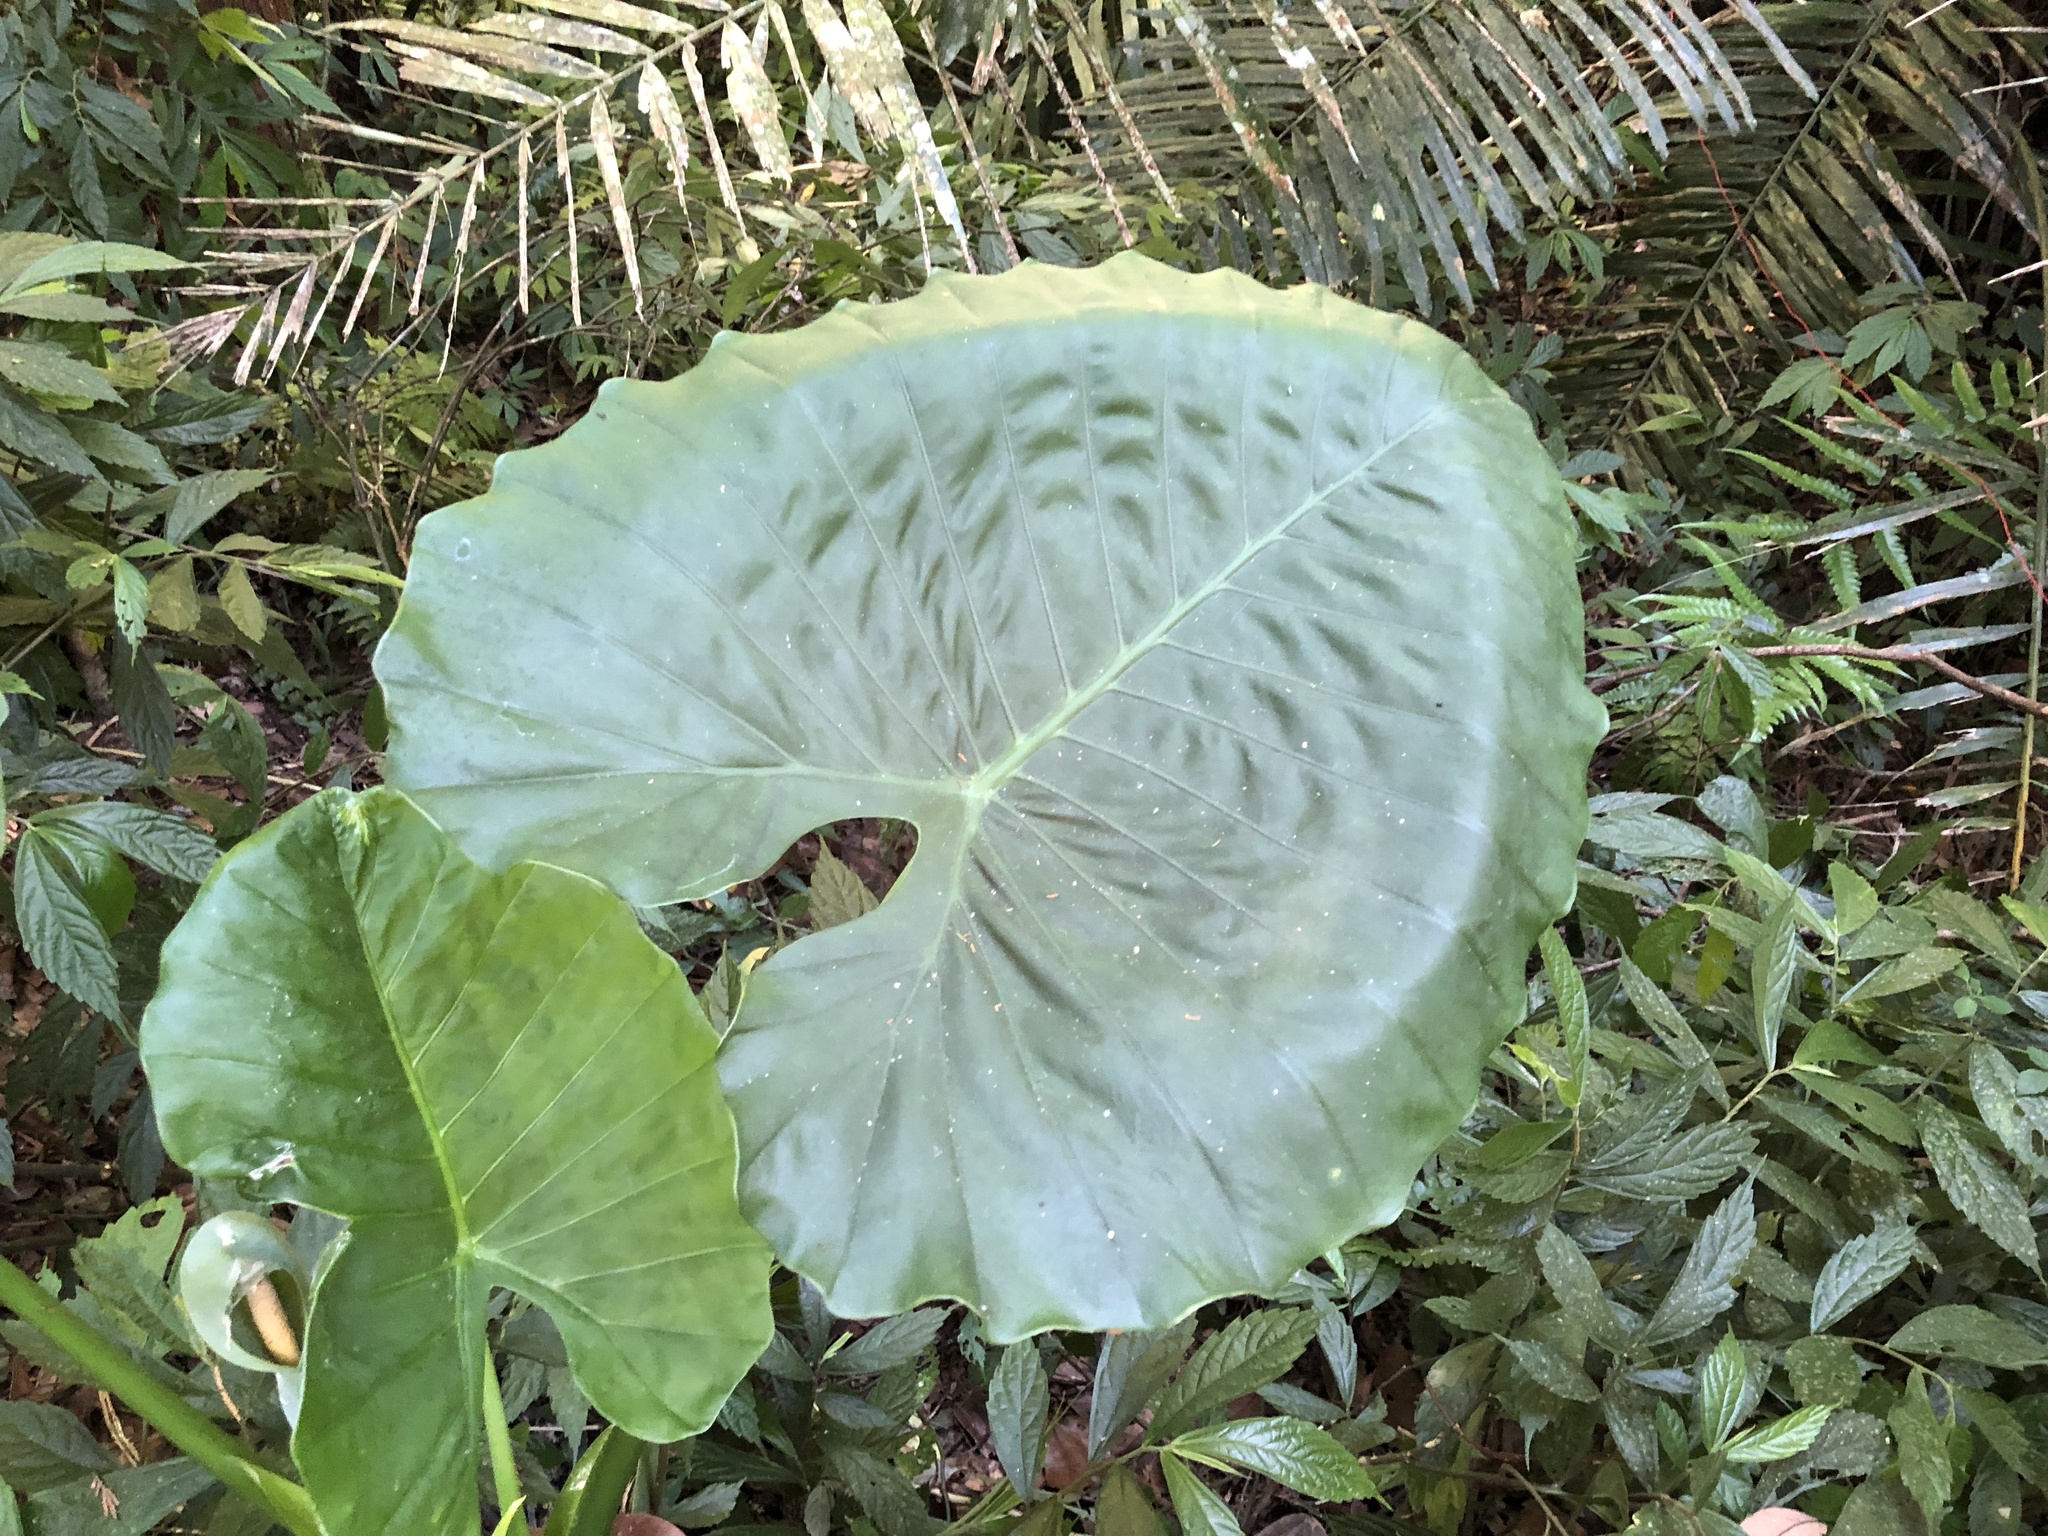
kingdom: Plantae
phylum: Tracheophyta
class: Liliopsida
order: Alismatales
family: Araceae
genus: Alocasia
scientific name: Alocasia odora
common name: Asian taro
